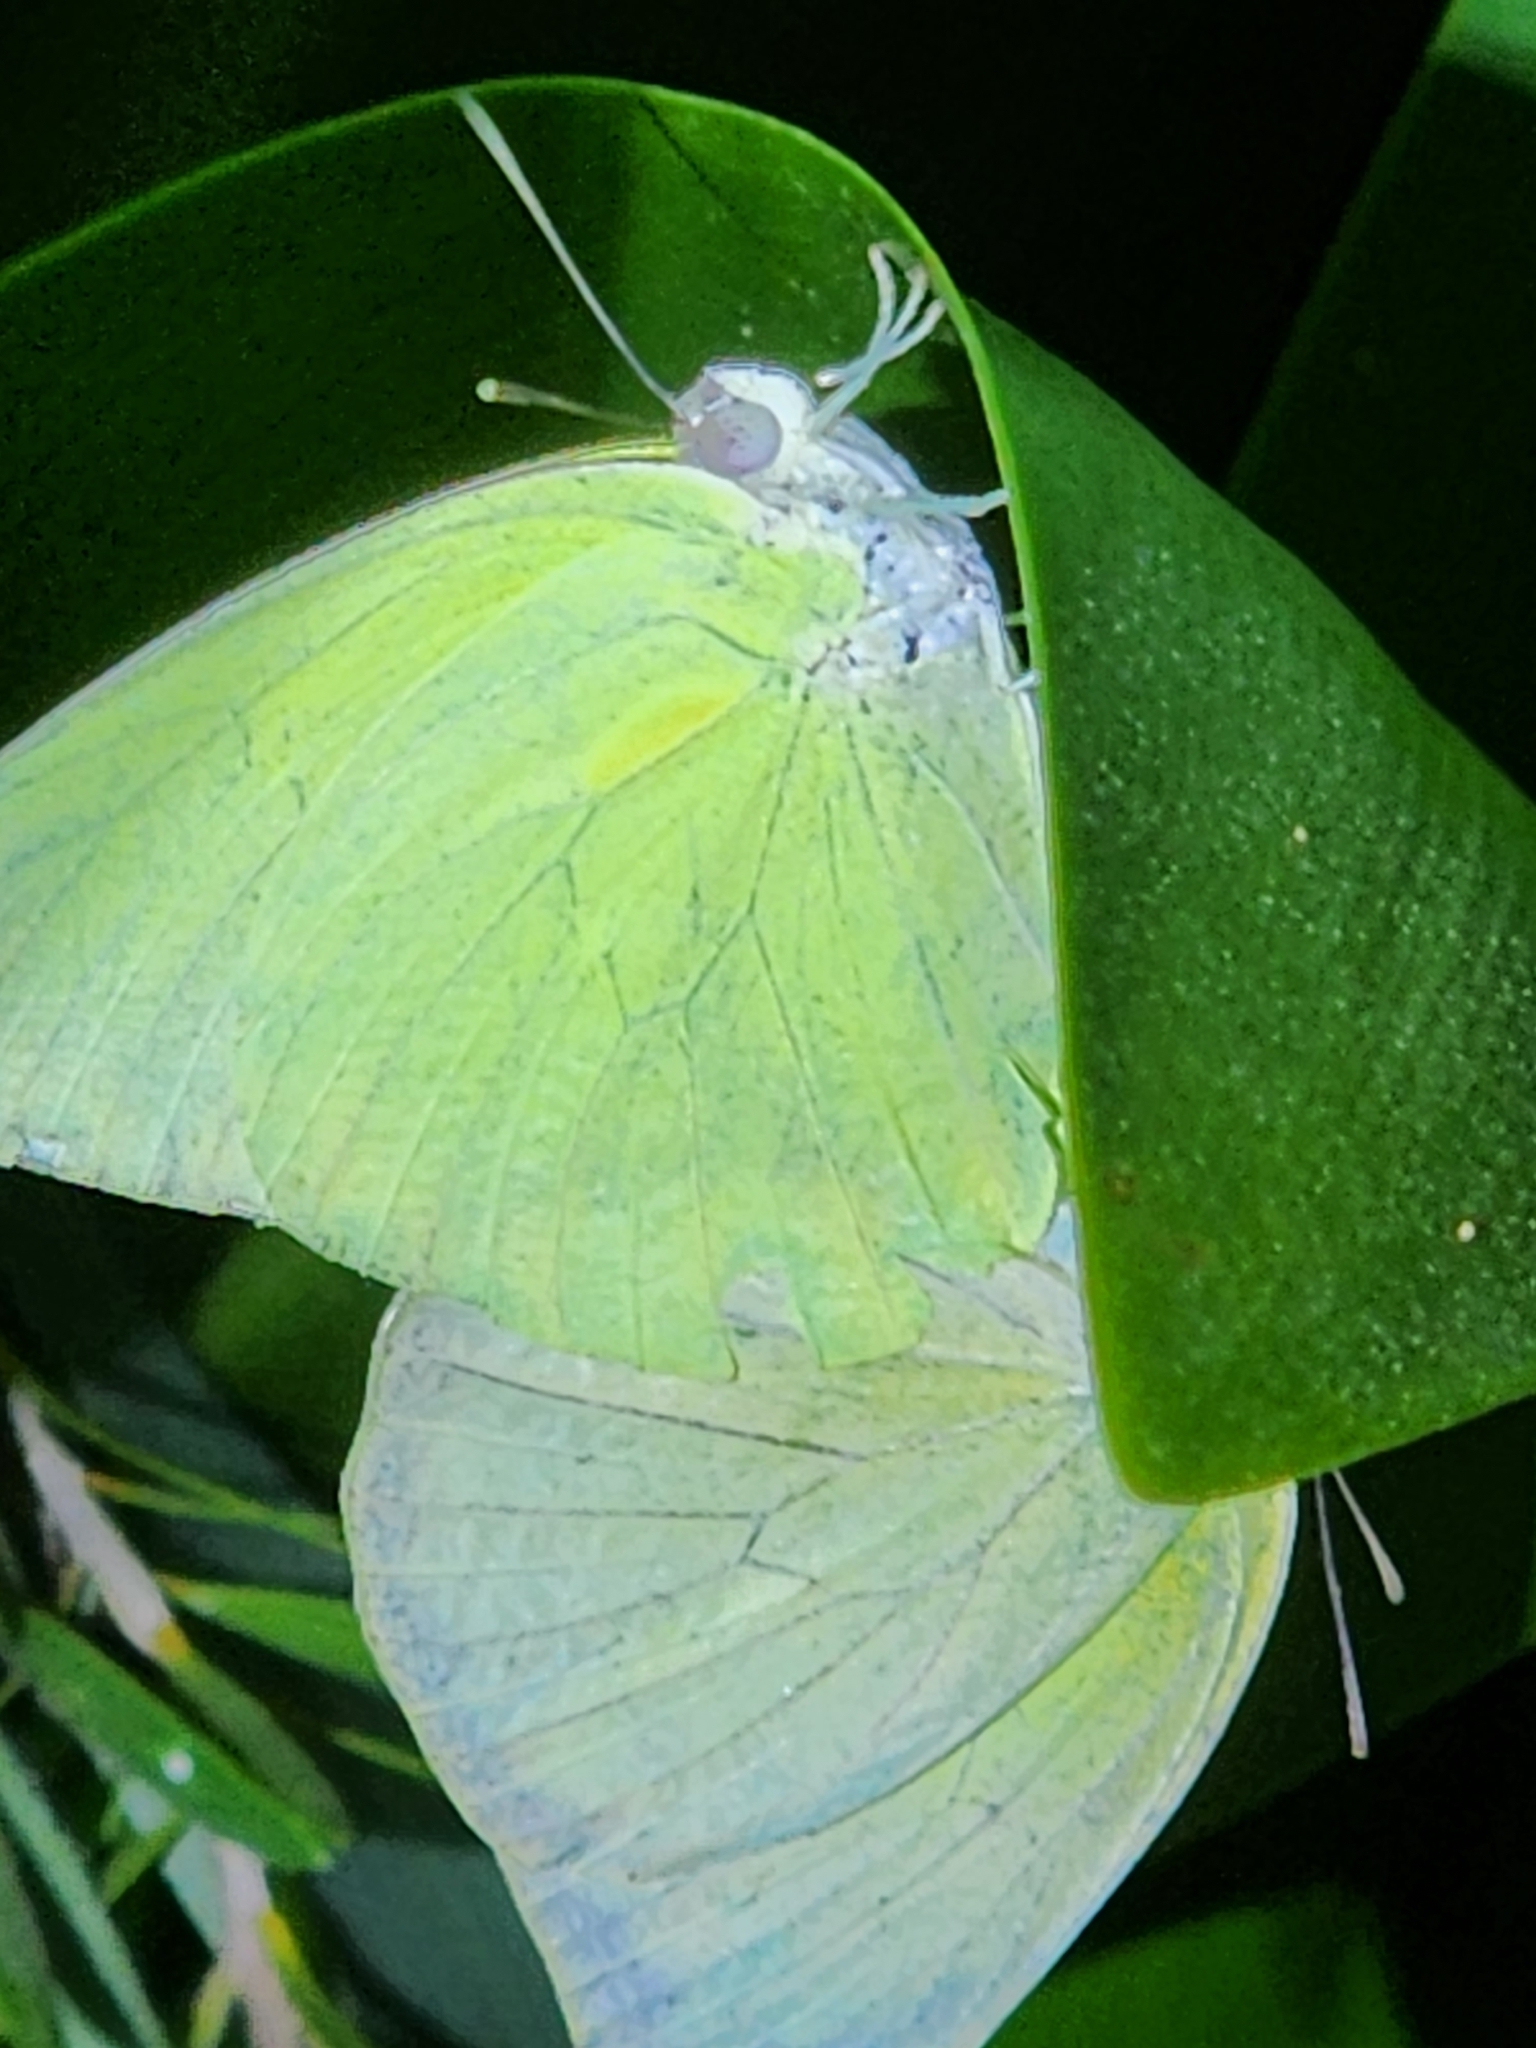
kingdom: Animalia
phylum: Arthropoda
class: Insecta
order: Lepidoptera
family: Pieridae
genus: Catopsilia
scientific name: Catopsilia pomona
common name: Common emigrant
